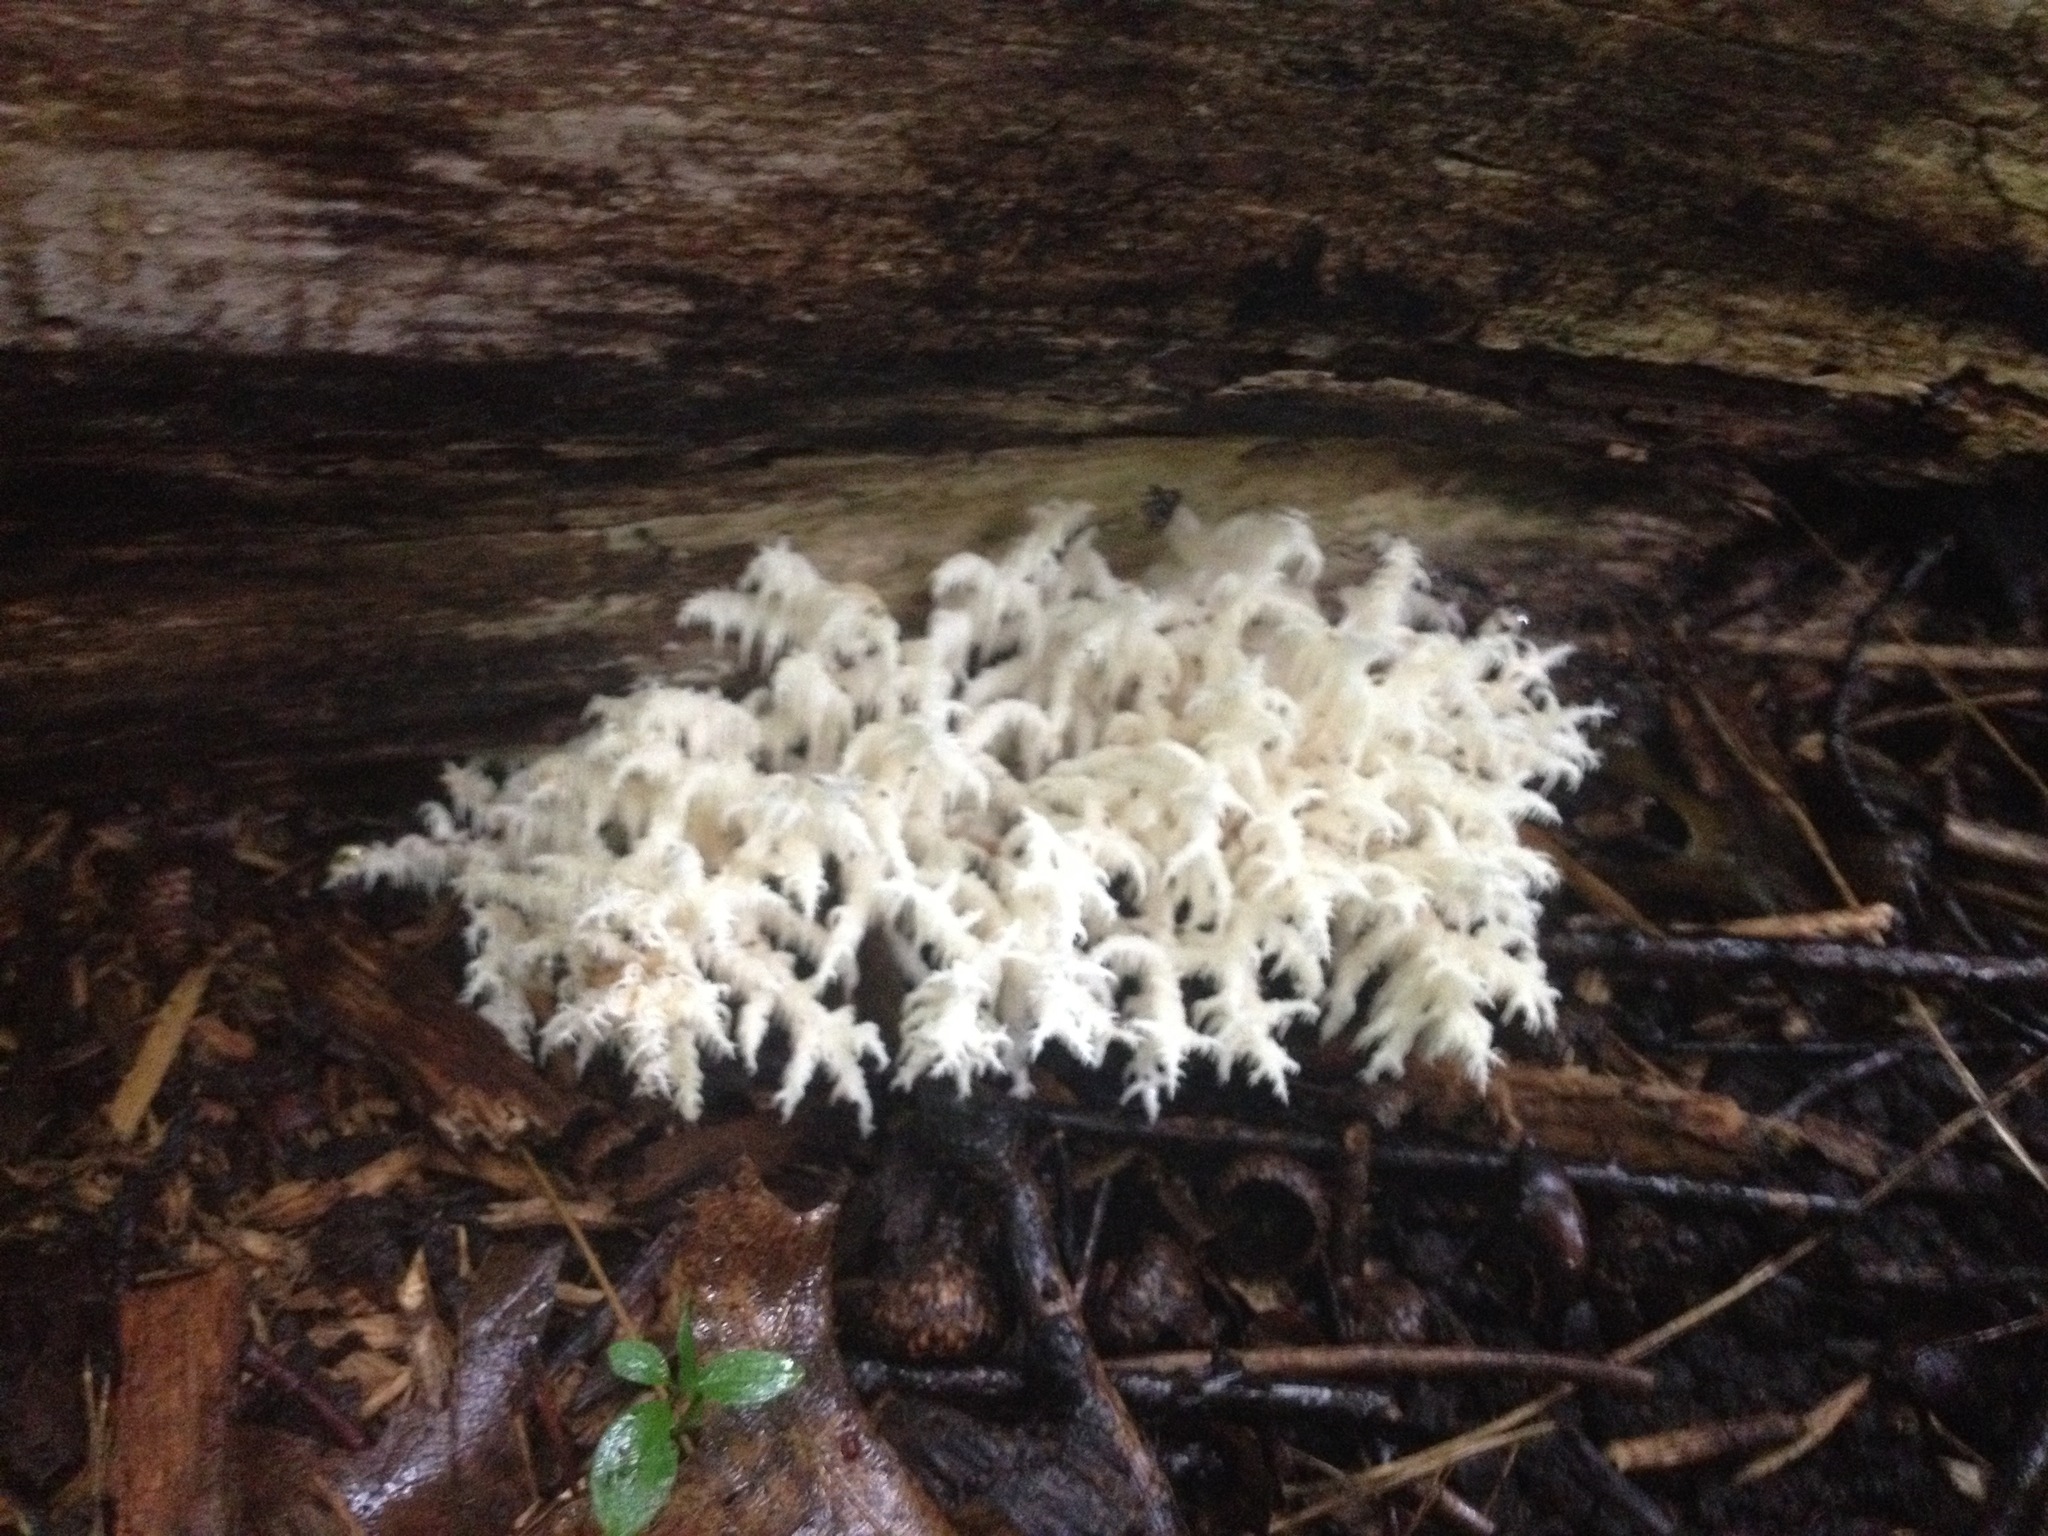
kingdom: Fungi
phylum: Basidiomycota
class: Agaricomycetes
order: Russulales
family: Hericiaceae
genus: Hericium
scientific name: Hericium coralloides
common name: Coral tooth
